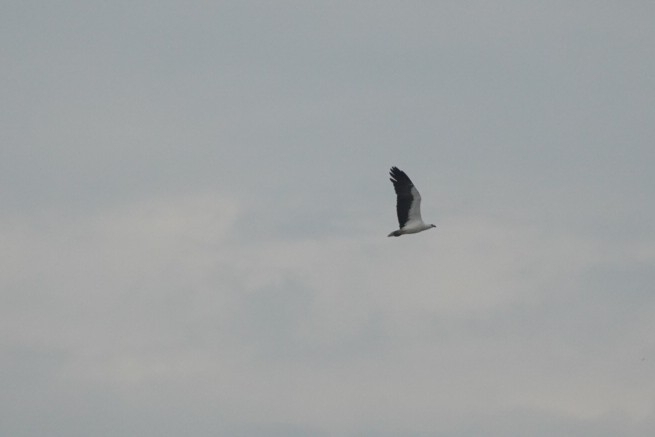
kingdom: Animalia
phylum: Chordata
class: Aves
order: Accipitriformes
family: Accipitridae
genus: Haliaeetus
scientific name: Haliaeetus leucogaster
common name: White-bellied sea eagle
